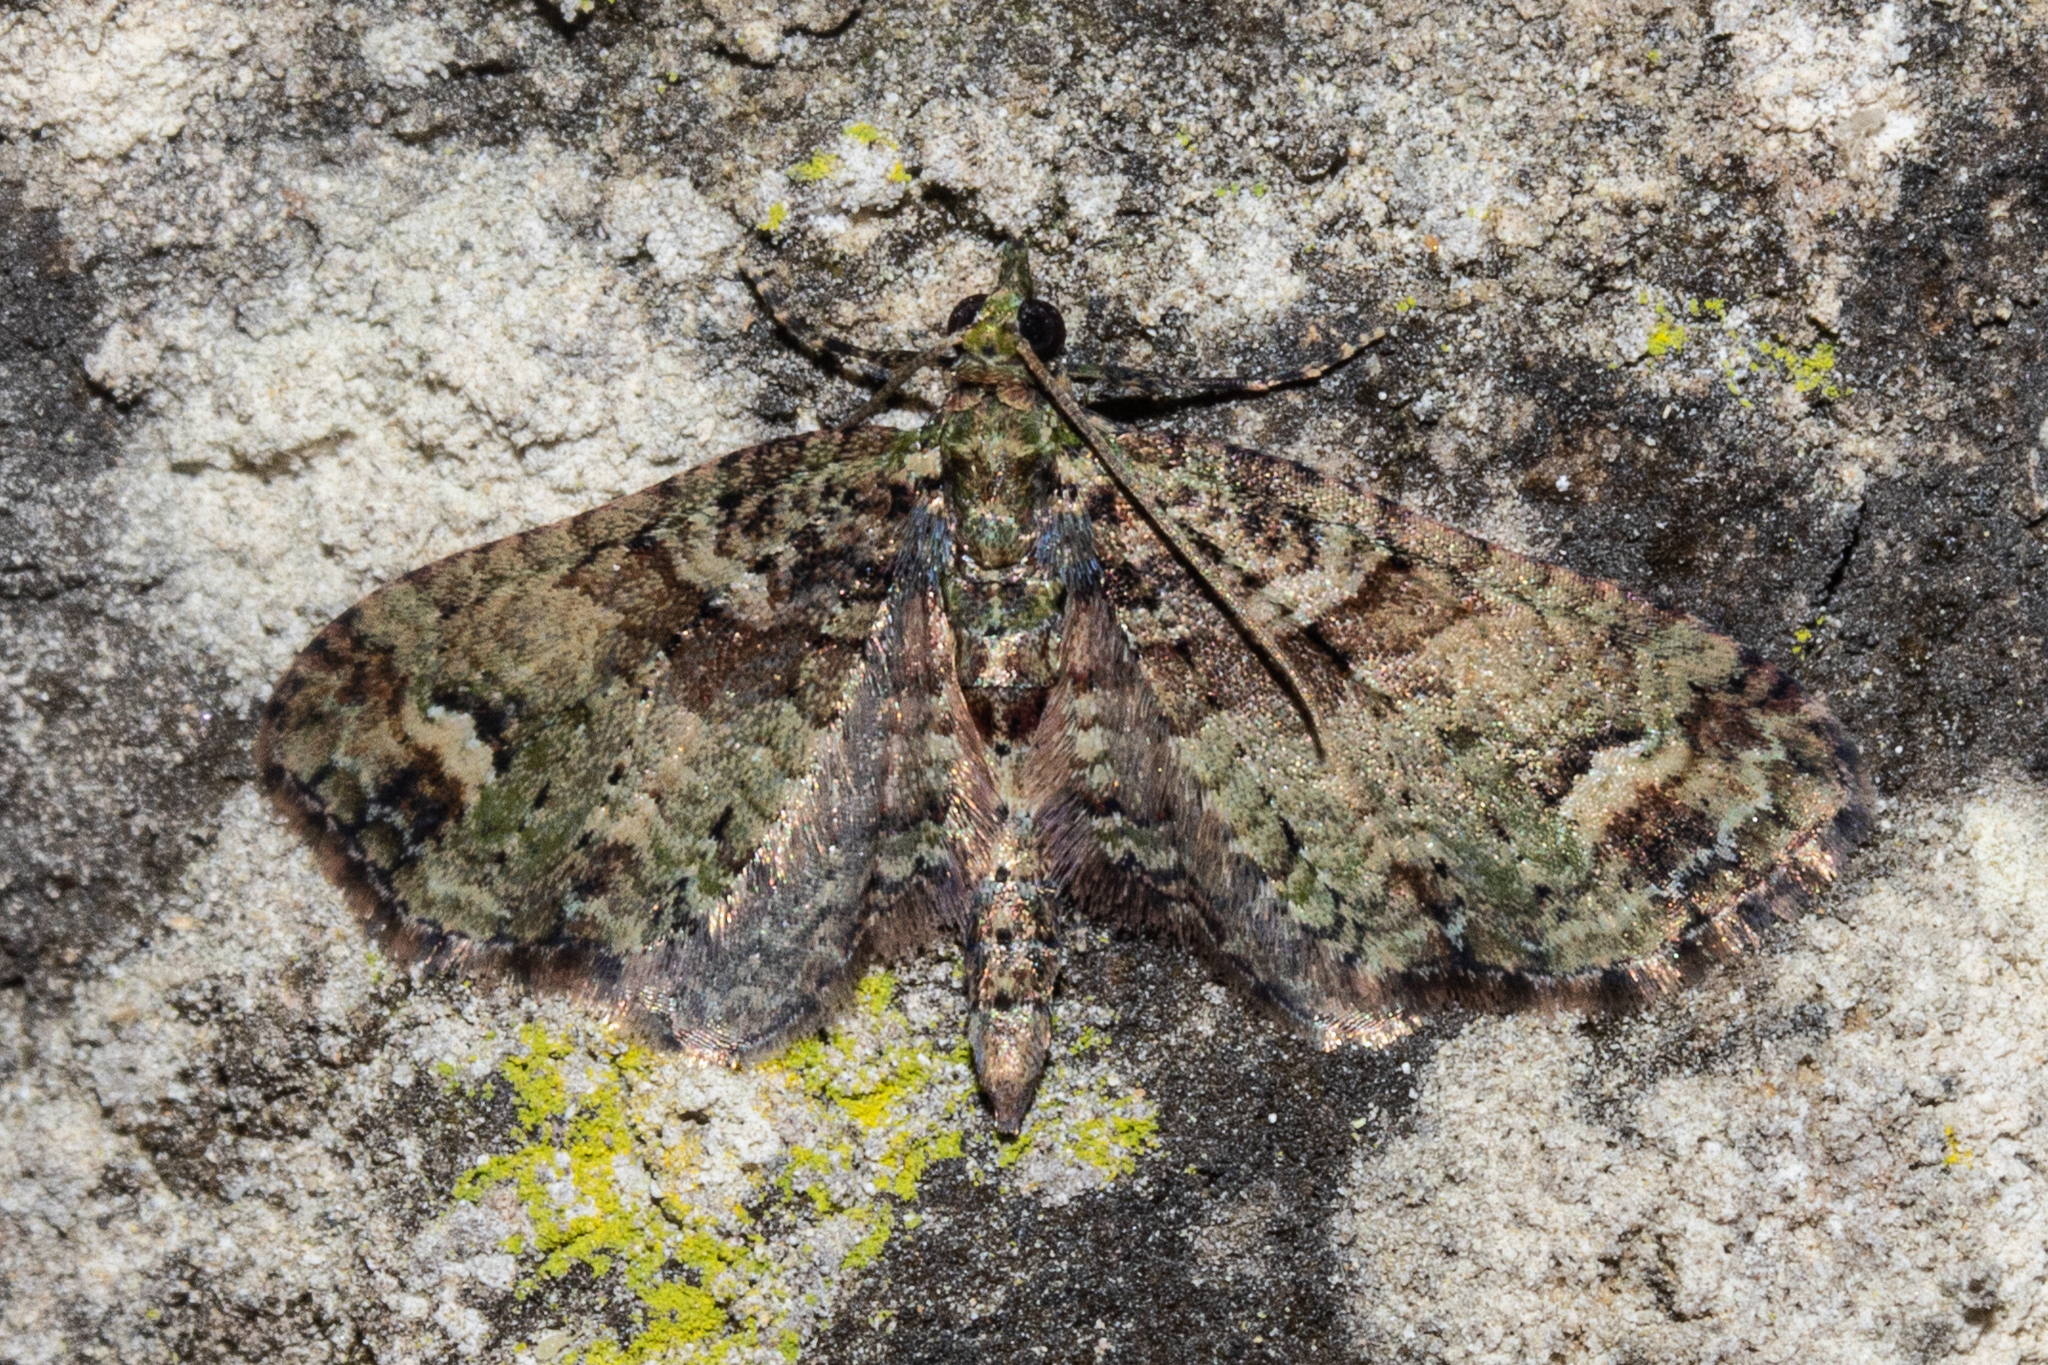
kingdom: Animalia
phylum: Arthropoda
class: Insecta
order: Lepidoptera
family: Geometridae
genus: Idaea
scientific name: Idaea mutanda
